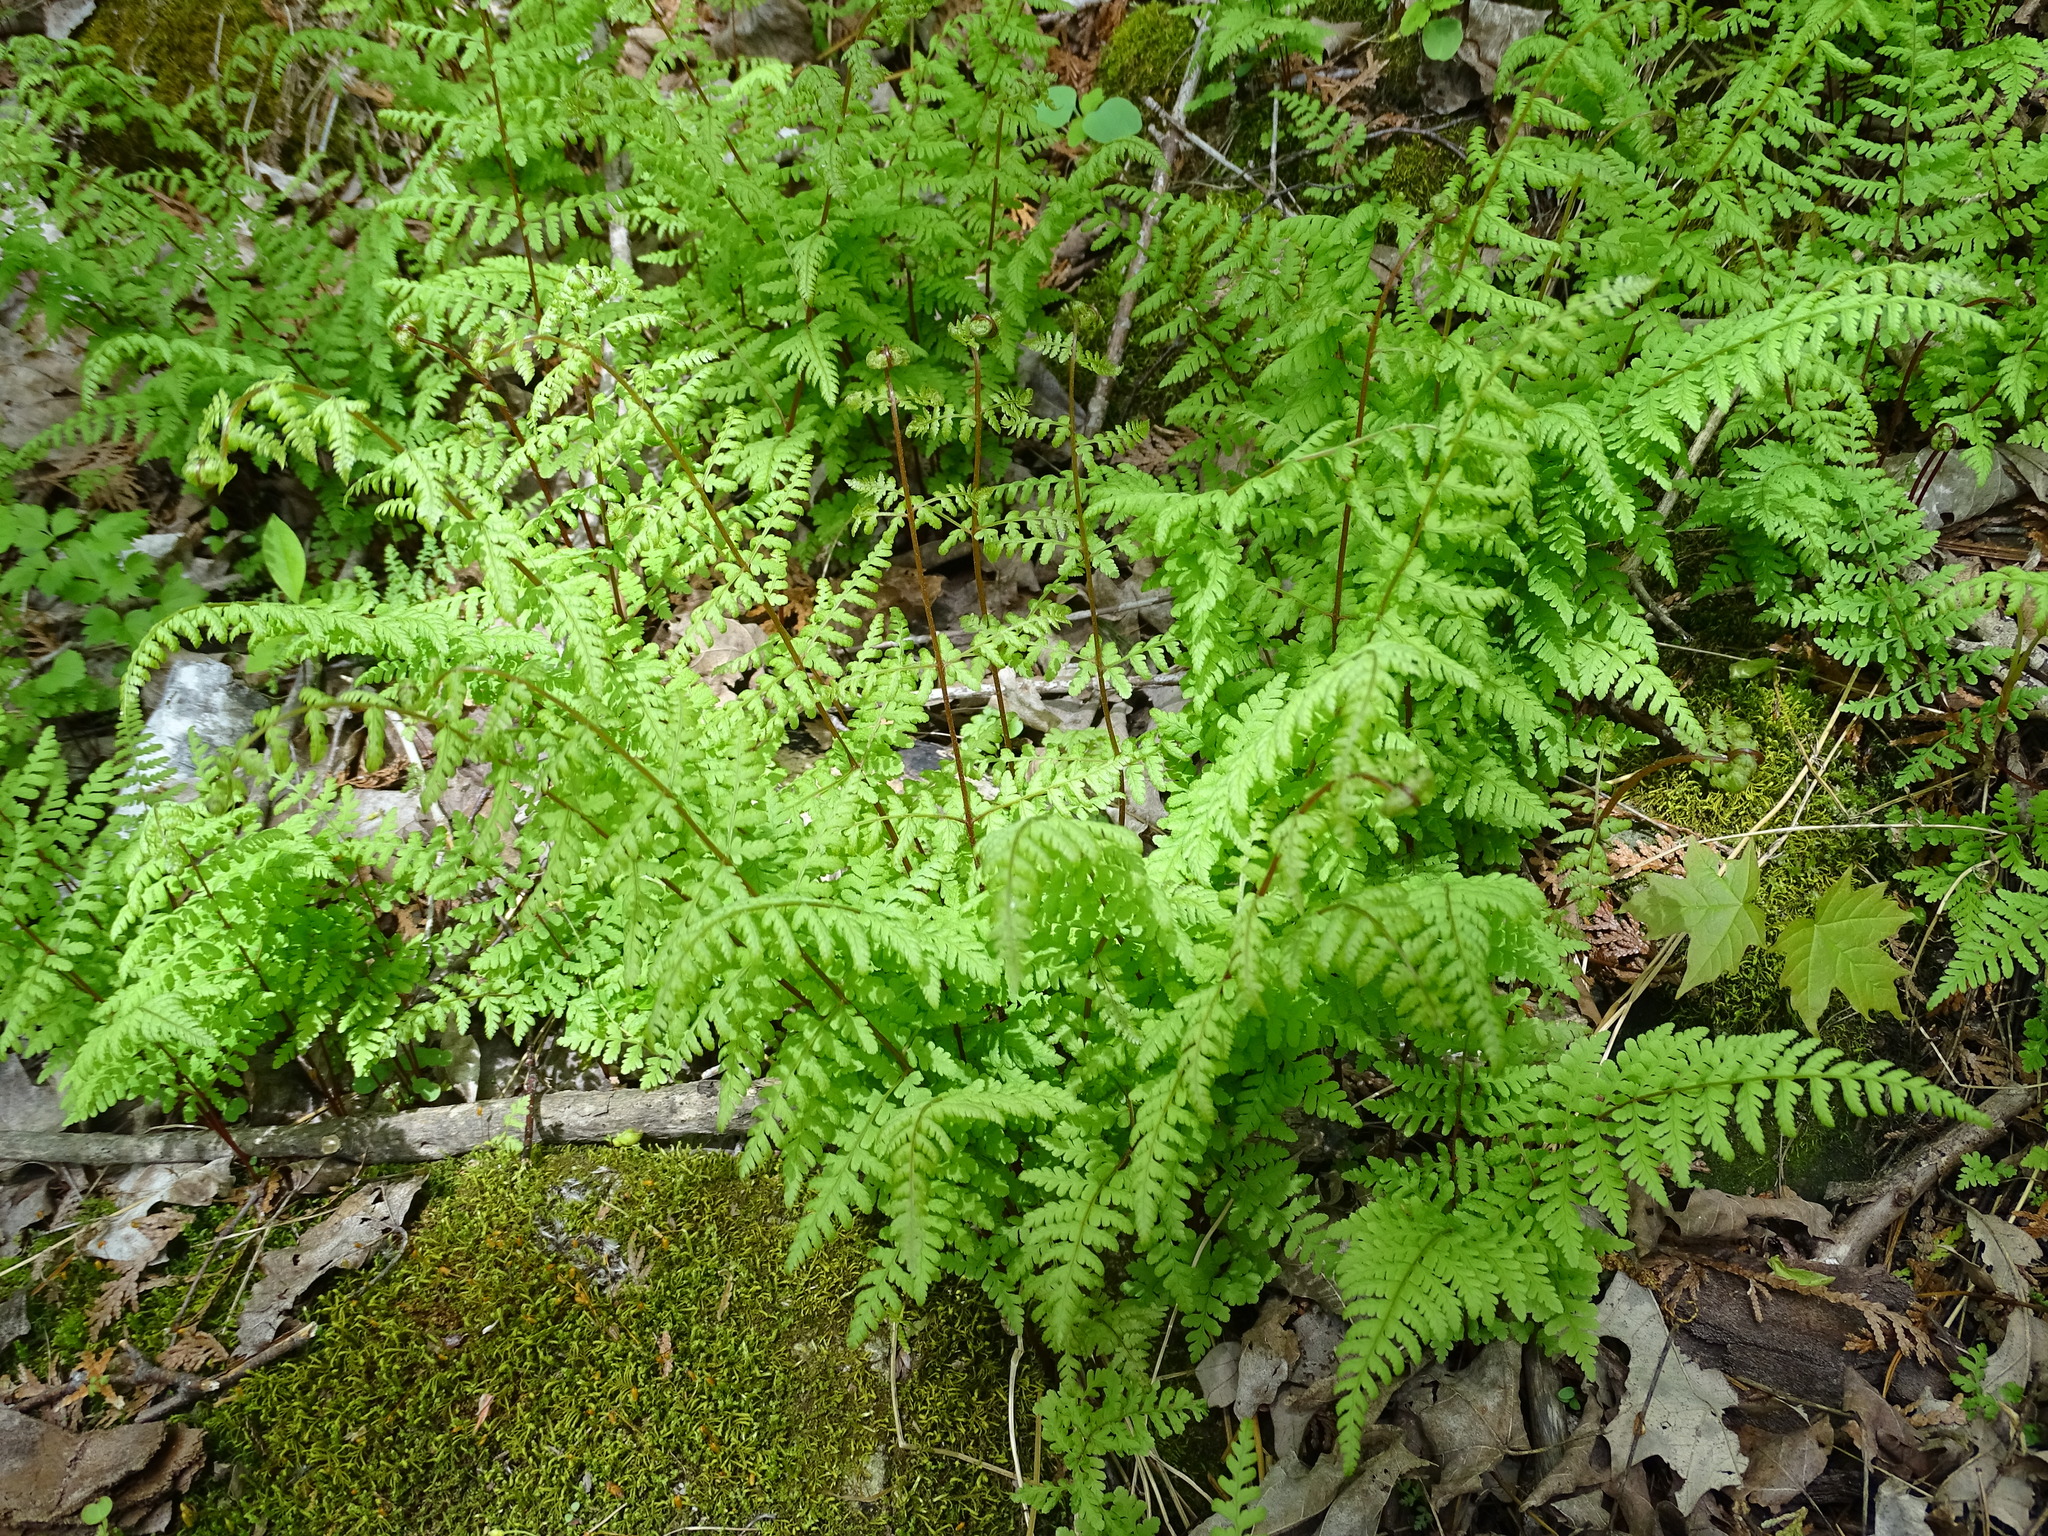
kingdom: Plantae
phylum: Tracheophyta
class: Polypodiopsida
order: Polypodiales
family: Cystopteridaceae
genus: Cystopteris
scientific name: Cystopteris bulbifera
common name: Bulblet bladder fern
